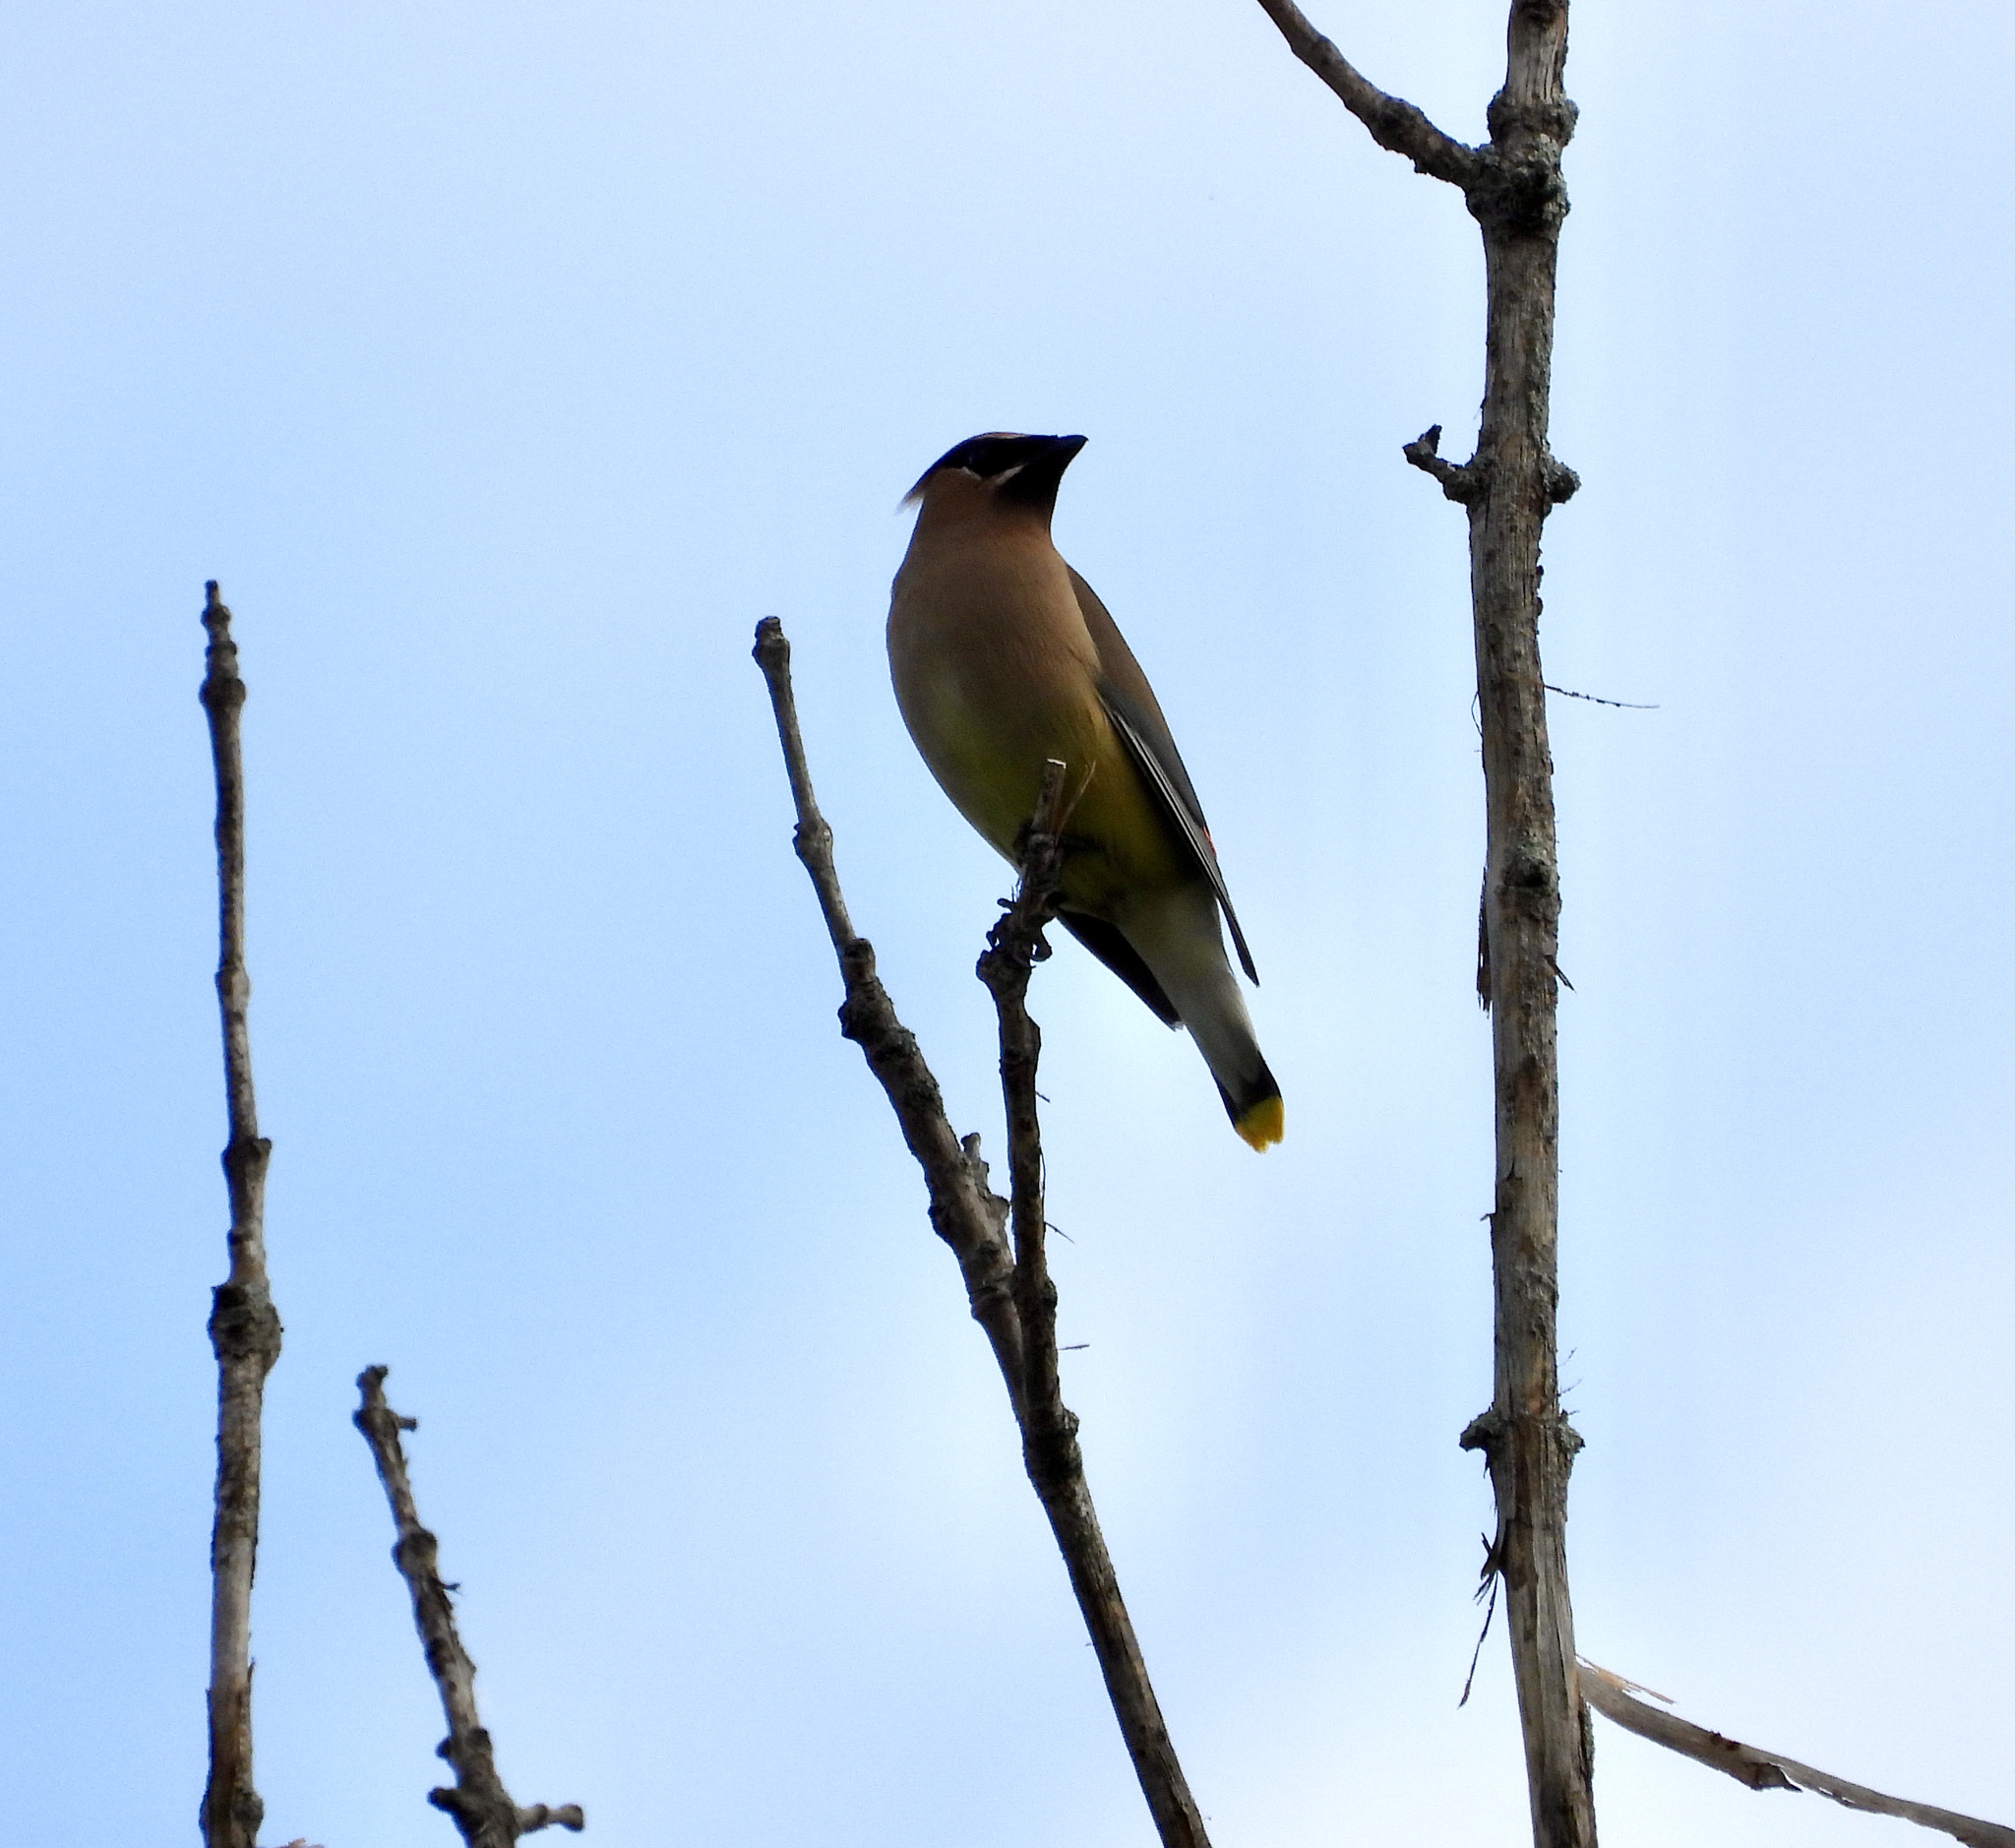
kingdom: Animalia
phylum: Chordata
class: Aves
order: Passeriformes
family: Bombycillidae
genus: Bombycilla
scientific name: Bombycilla cedrorum
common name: Cedar waxwing
